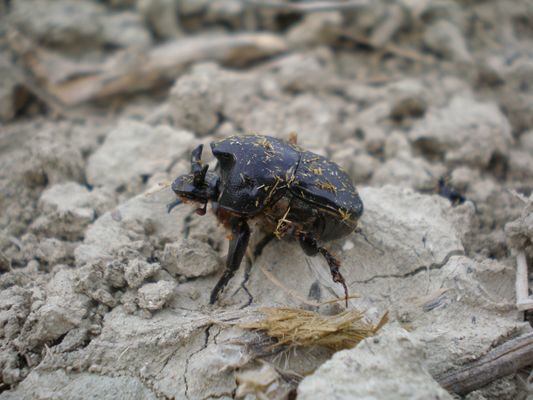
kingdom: Animalia
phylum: Arthropoda
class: Insecta
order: Coleoptera
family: Scarabaeidae
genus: Bubas
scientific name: Bubas bubalus
